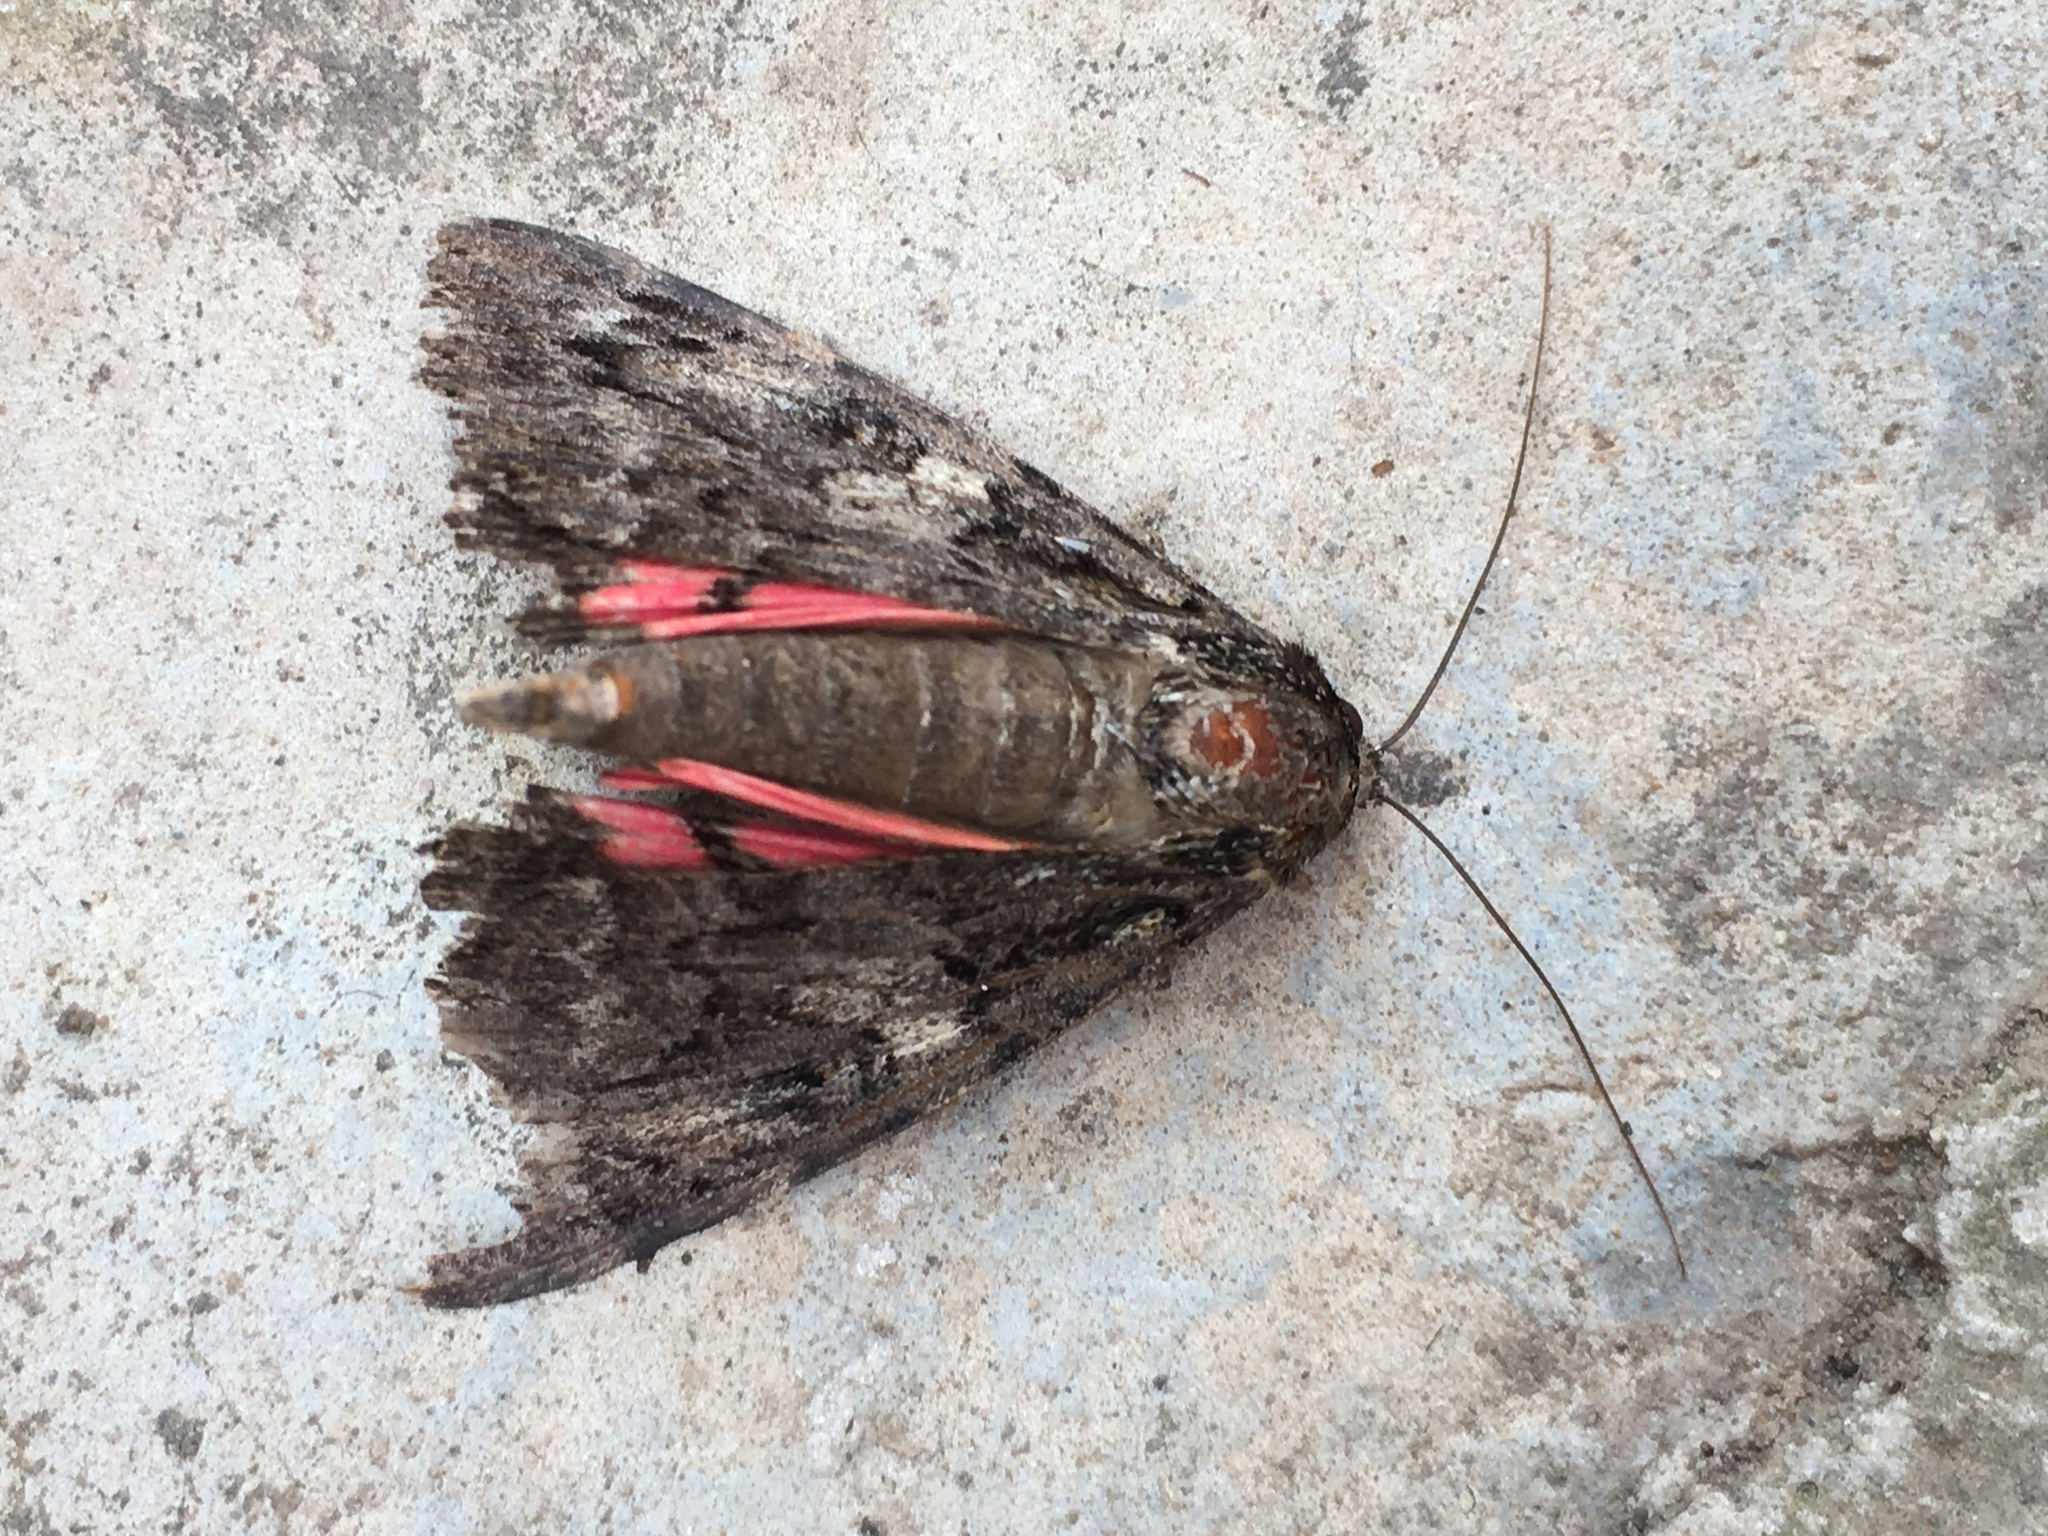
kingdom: Animalia
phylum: Arthropoda
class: Insecta
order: Lepidoptera
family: Erebidae
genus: Catocala
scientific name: Catocala coniuncta
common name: Minsmere crimson underwing
